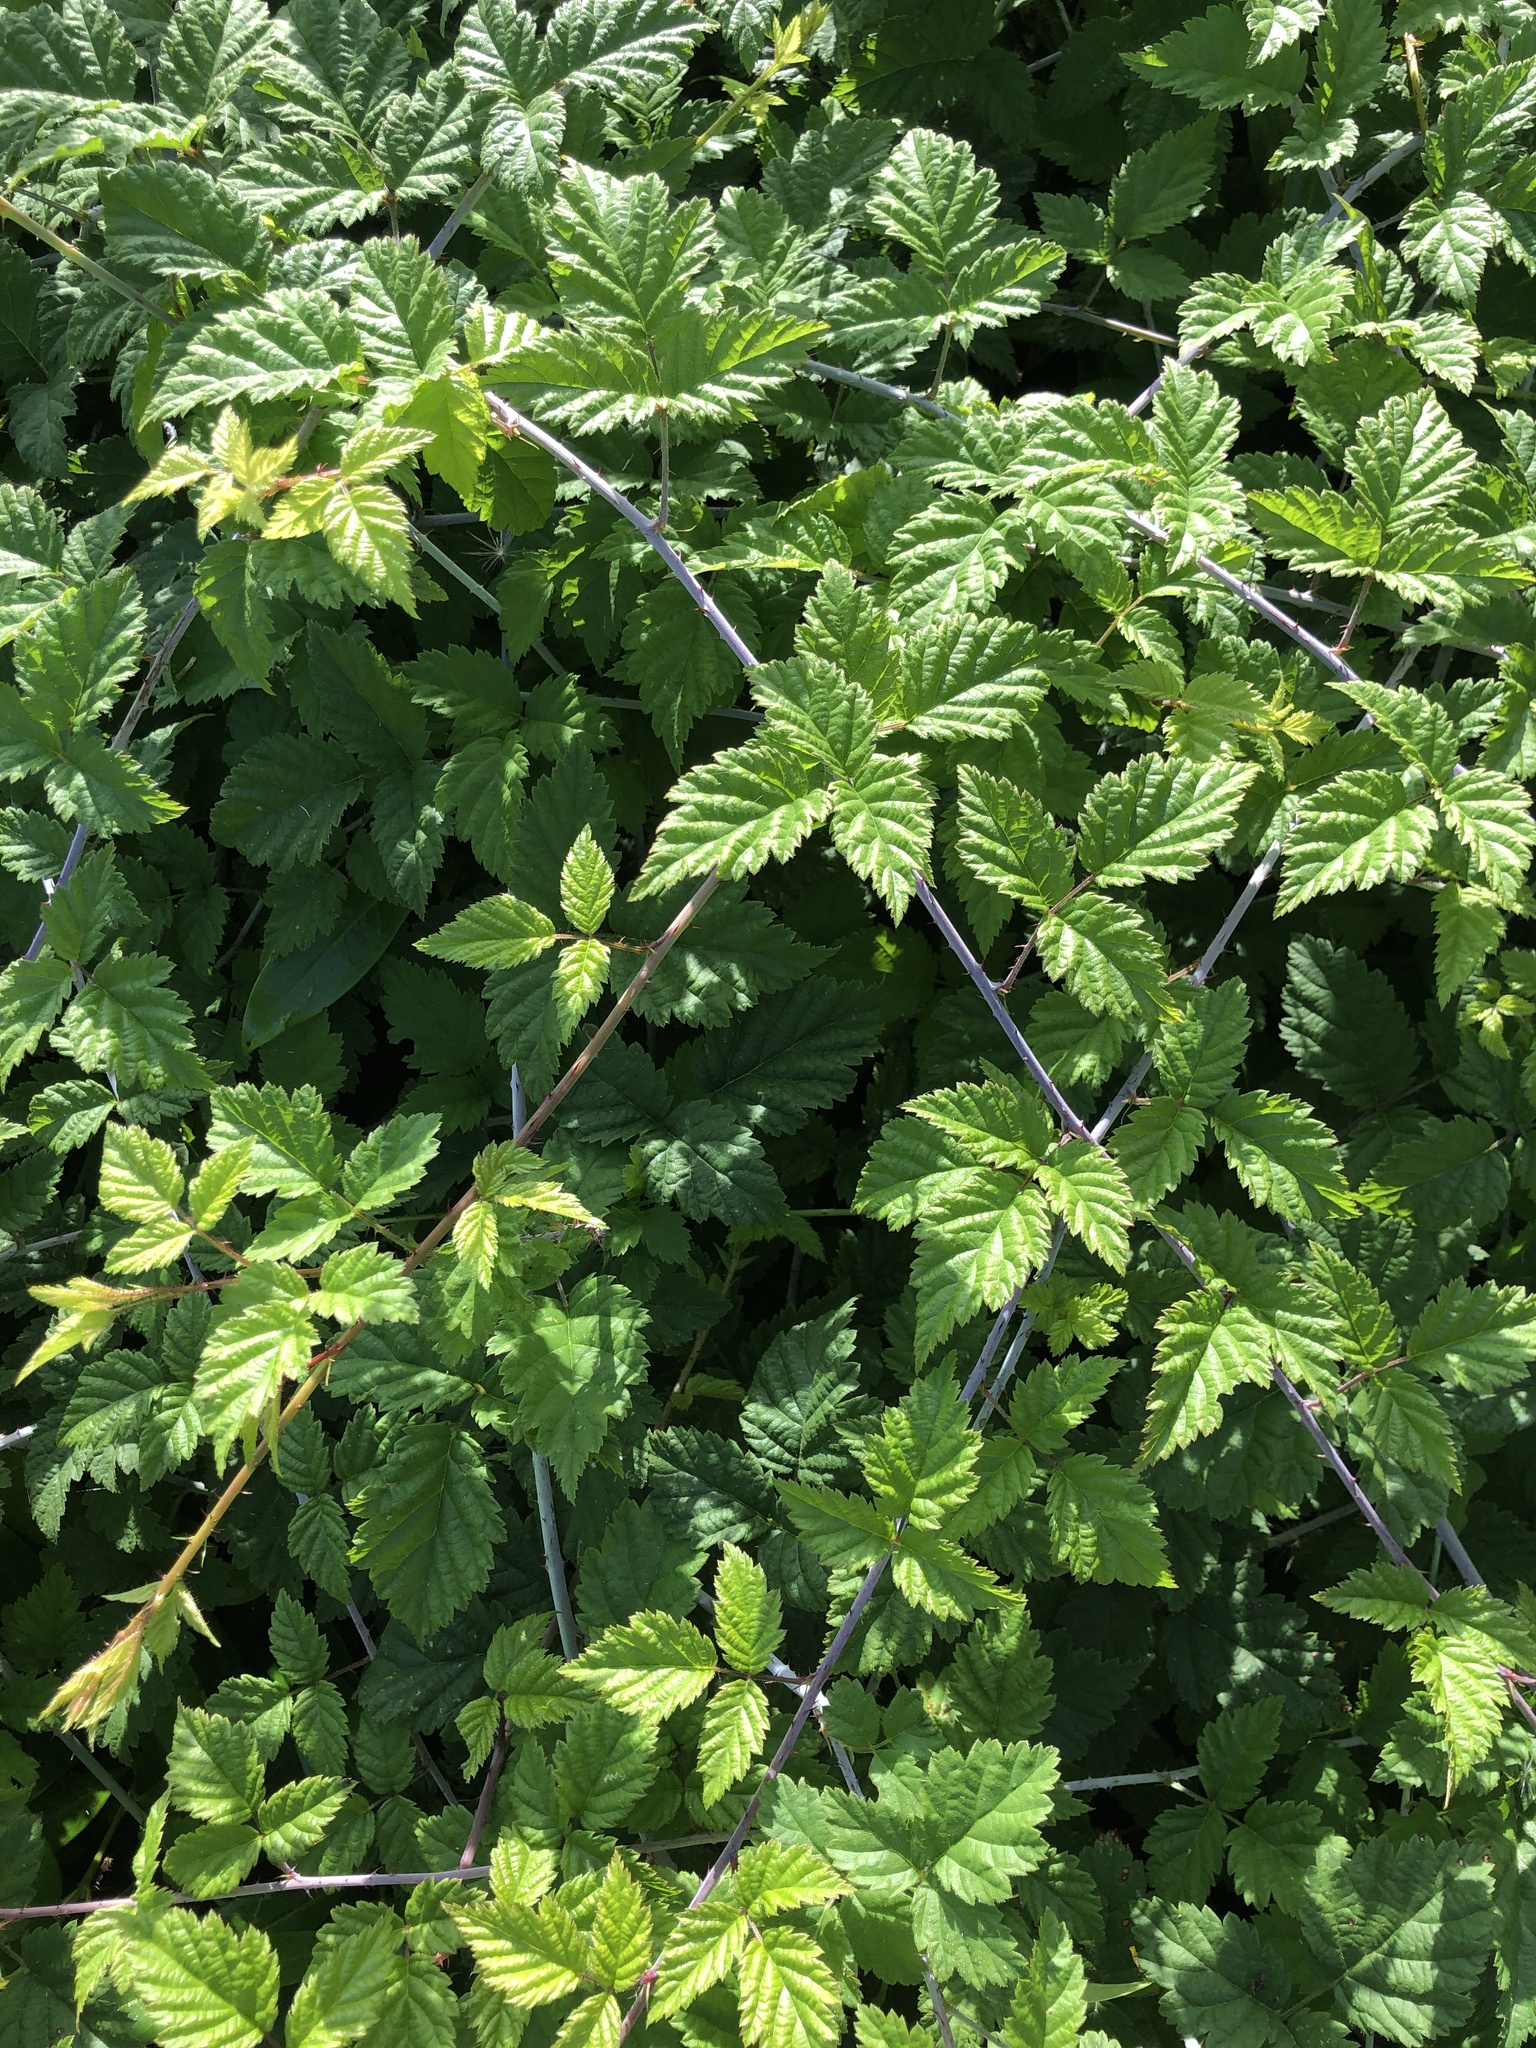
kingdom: Plantae
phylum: Tracheophyta
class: Magnoliopsida
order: Rosales
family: Rosaceae
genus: Rubus
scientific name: Rubus ursinus
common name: Pacific blackberry
